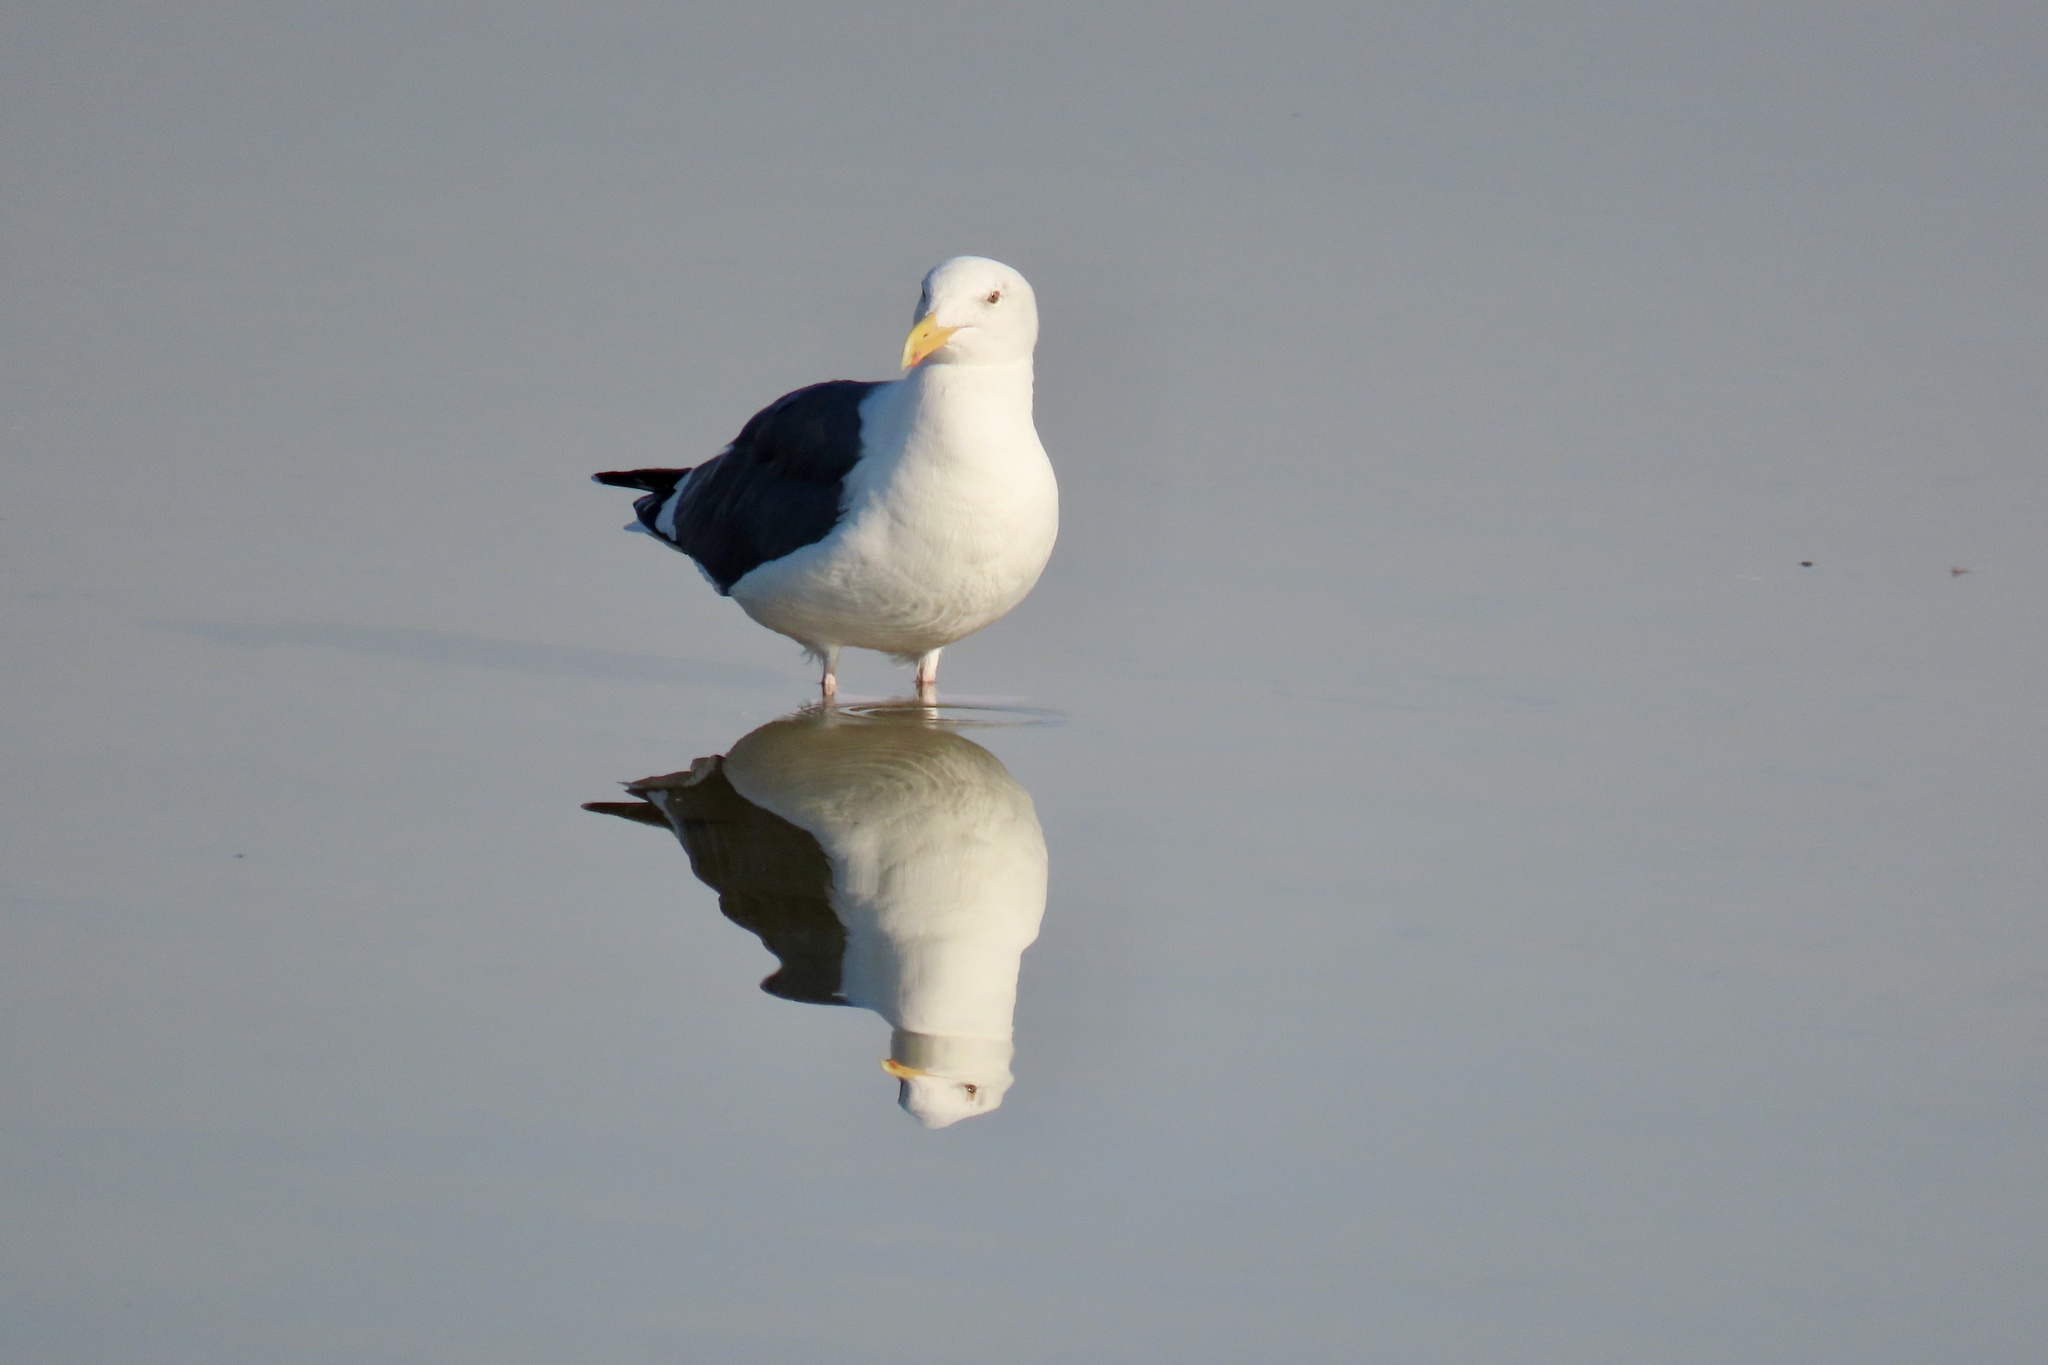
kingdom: Animalia
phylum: Chordata
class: Aves
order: Charadriiformes
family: Laridae
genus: Larus
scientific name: Larus occidentalis
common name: Western gull
